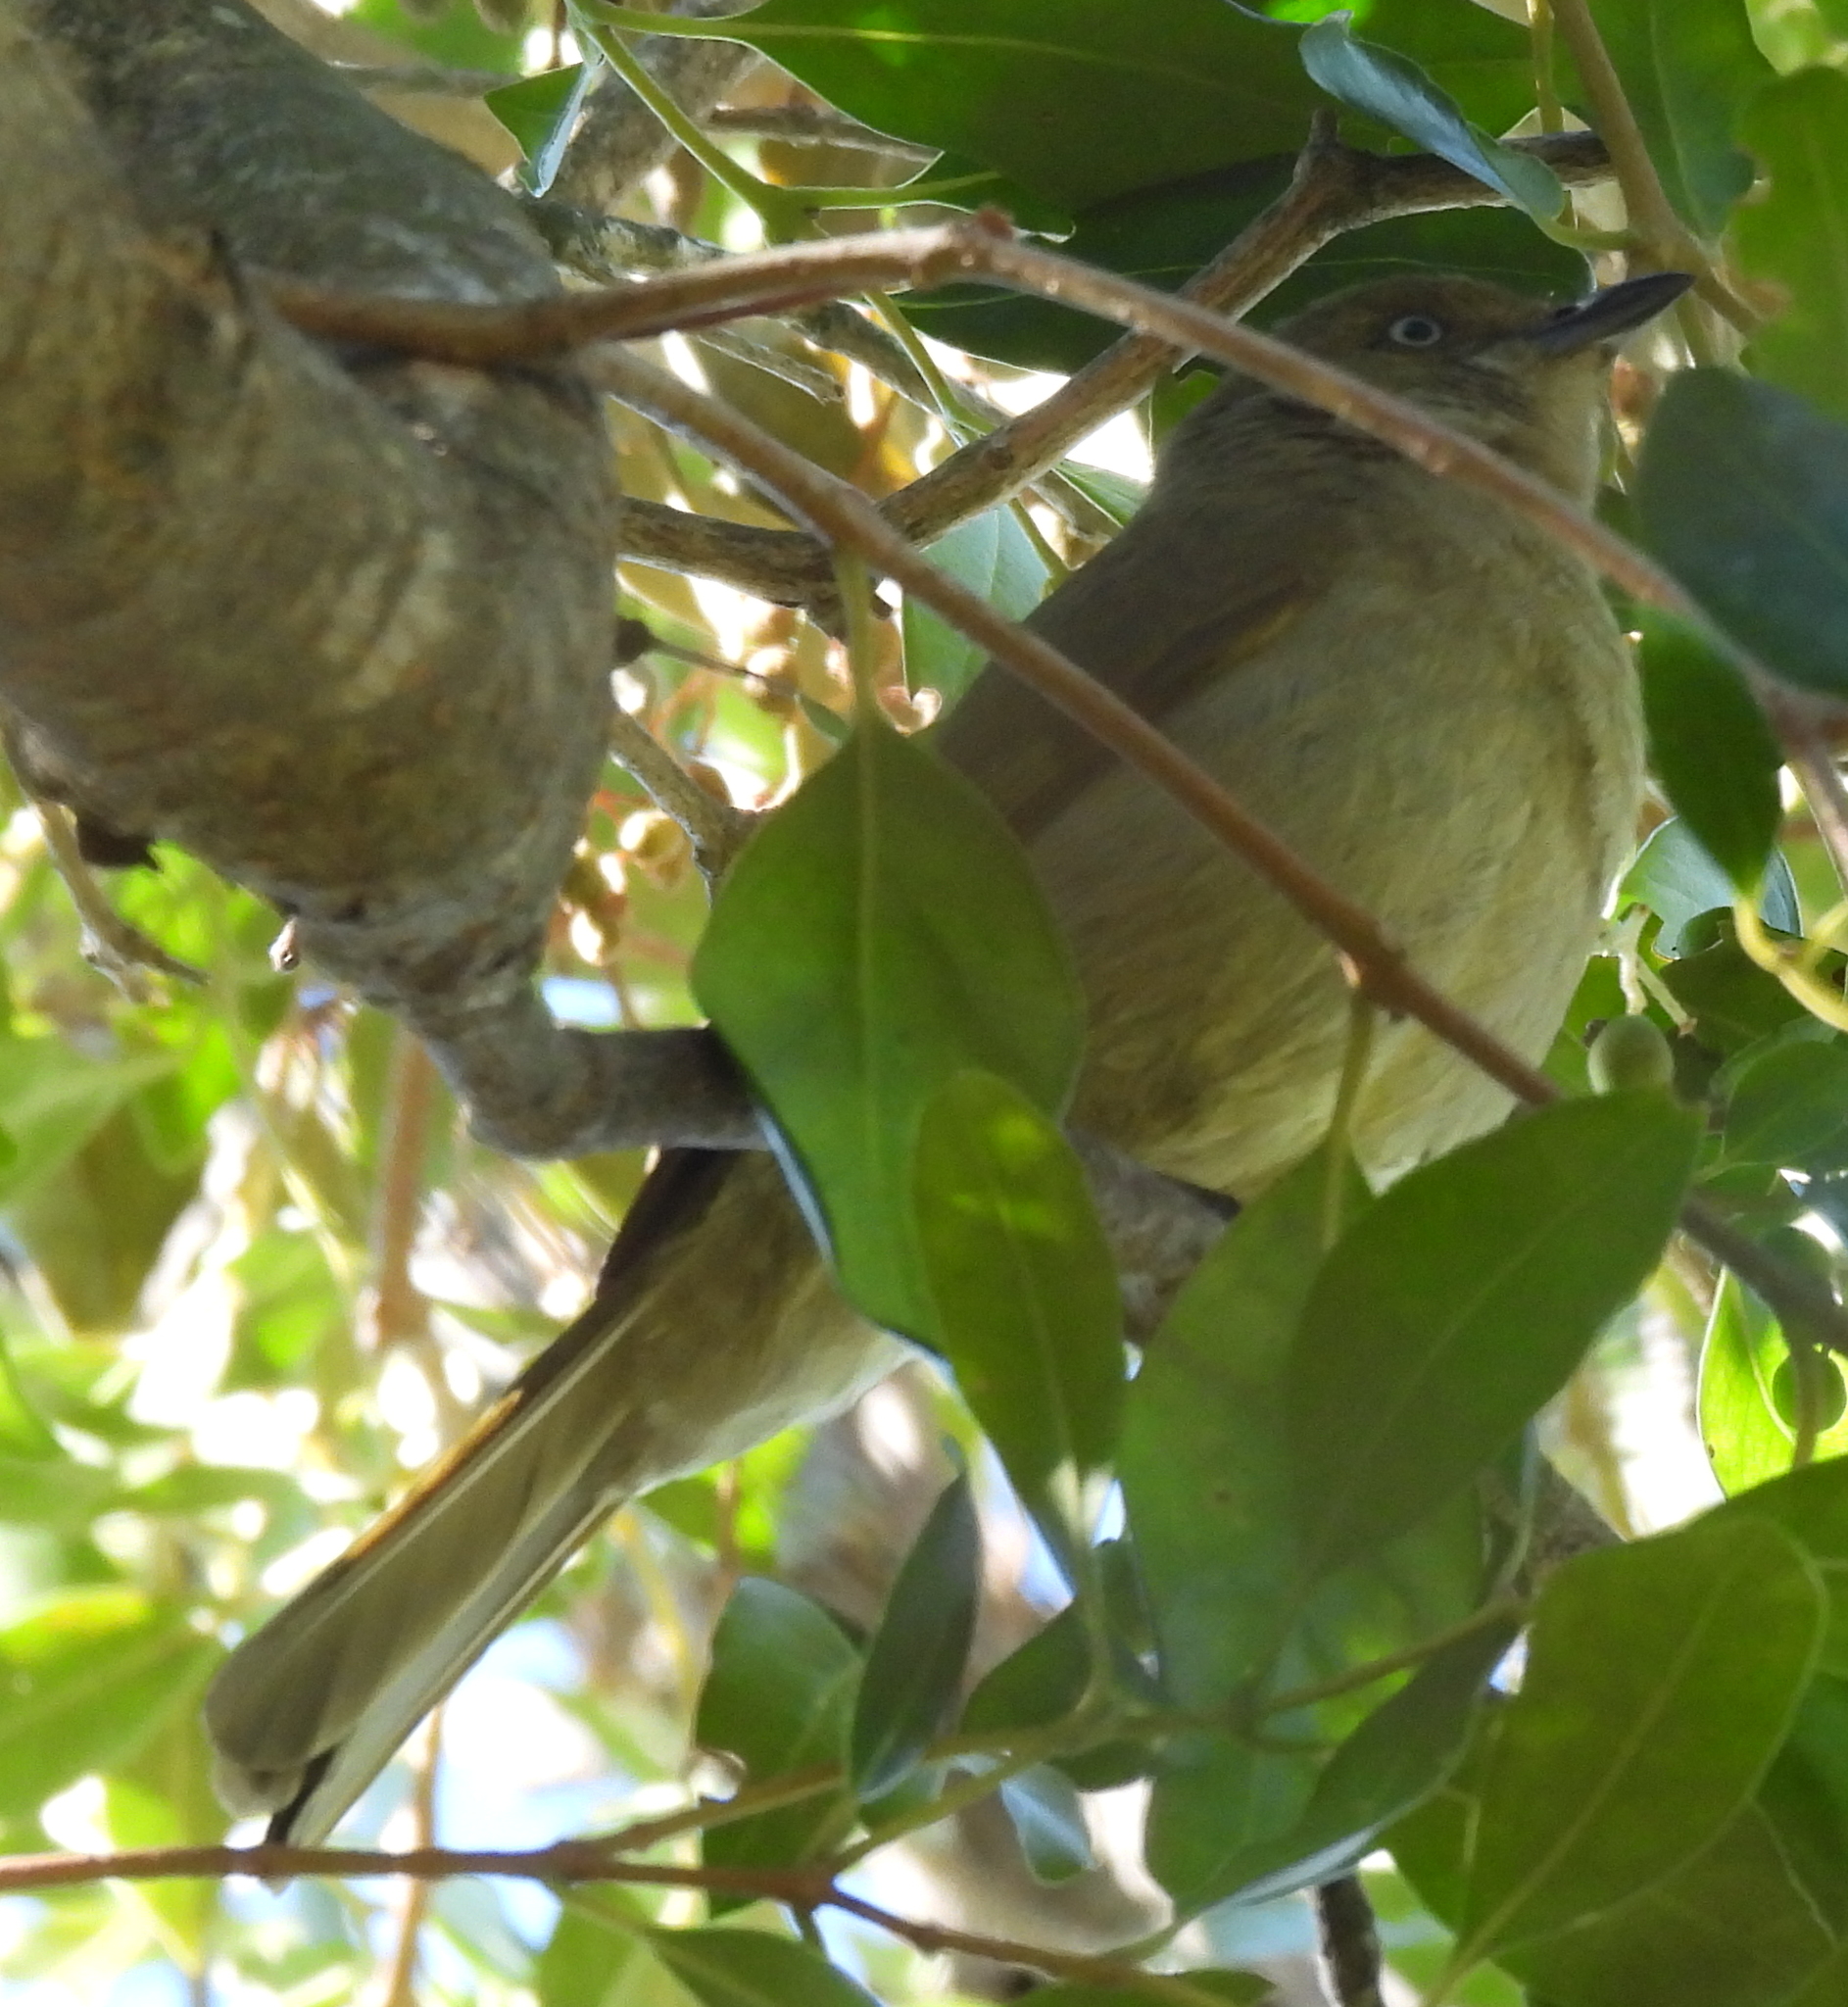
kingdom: Animalia
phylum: Chordata
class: Aves
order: Passeriformes
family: Pycnonotidae
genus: Andropadus
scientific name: Andropadus importunus
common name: Sombre greenbul
